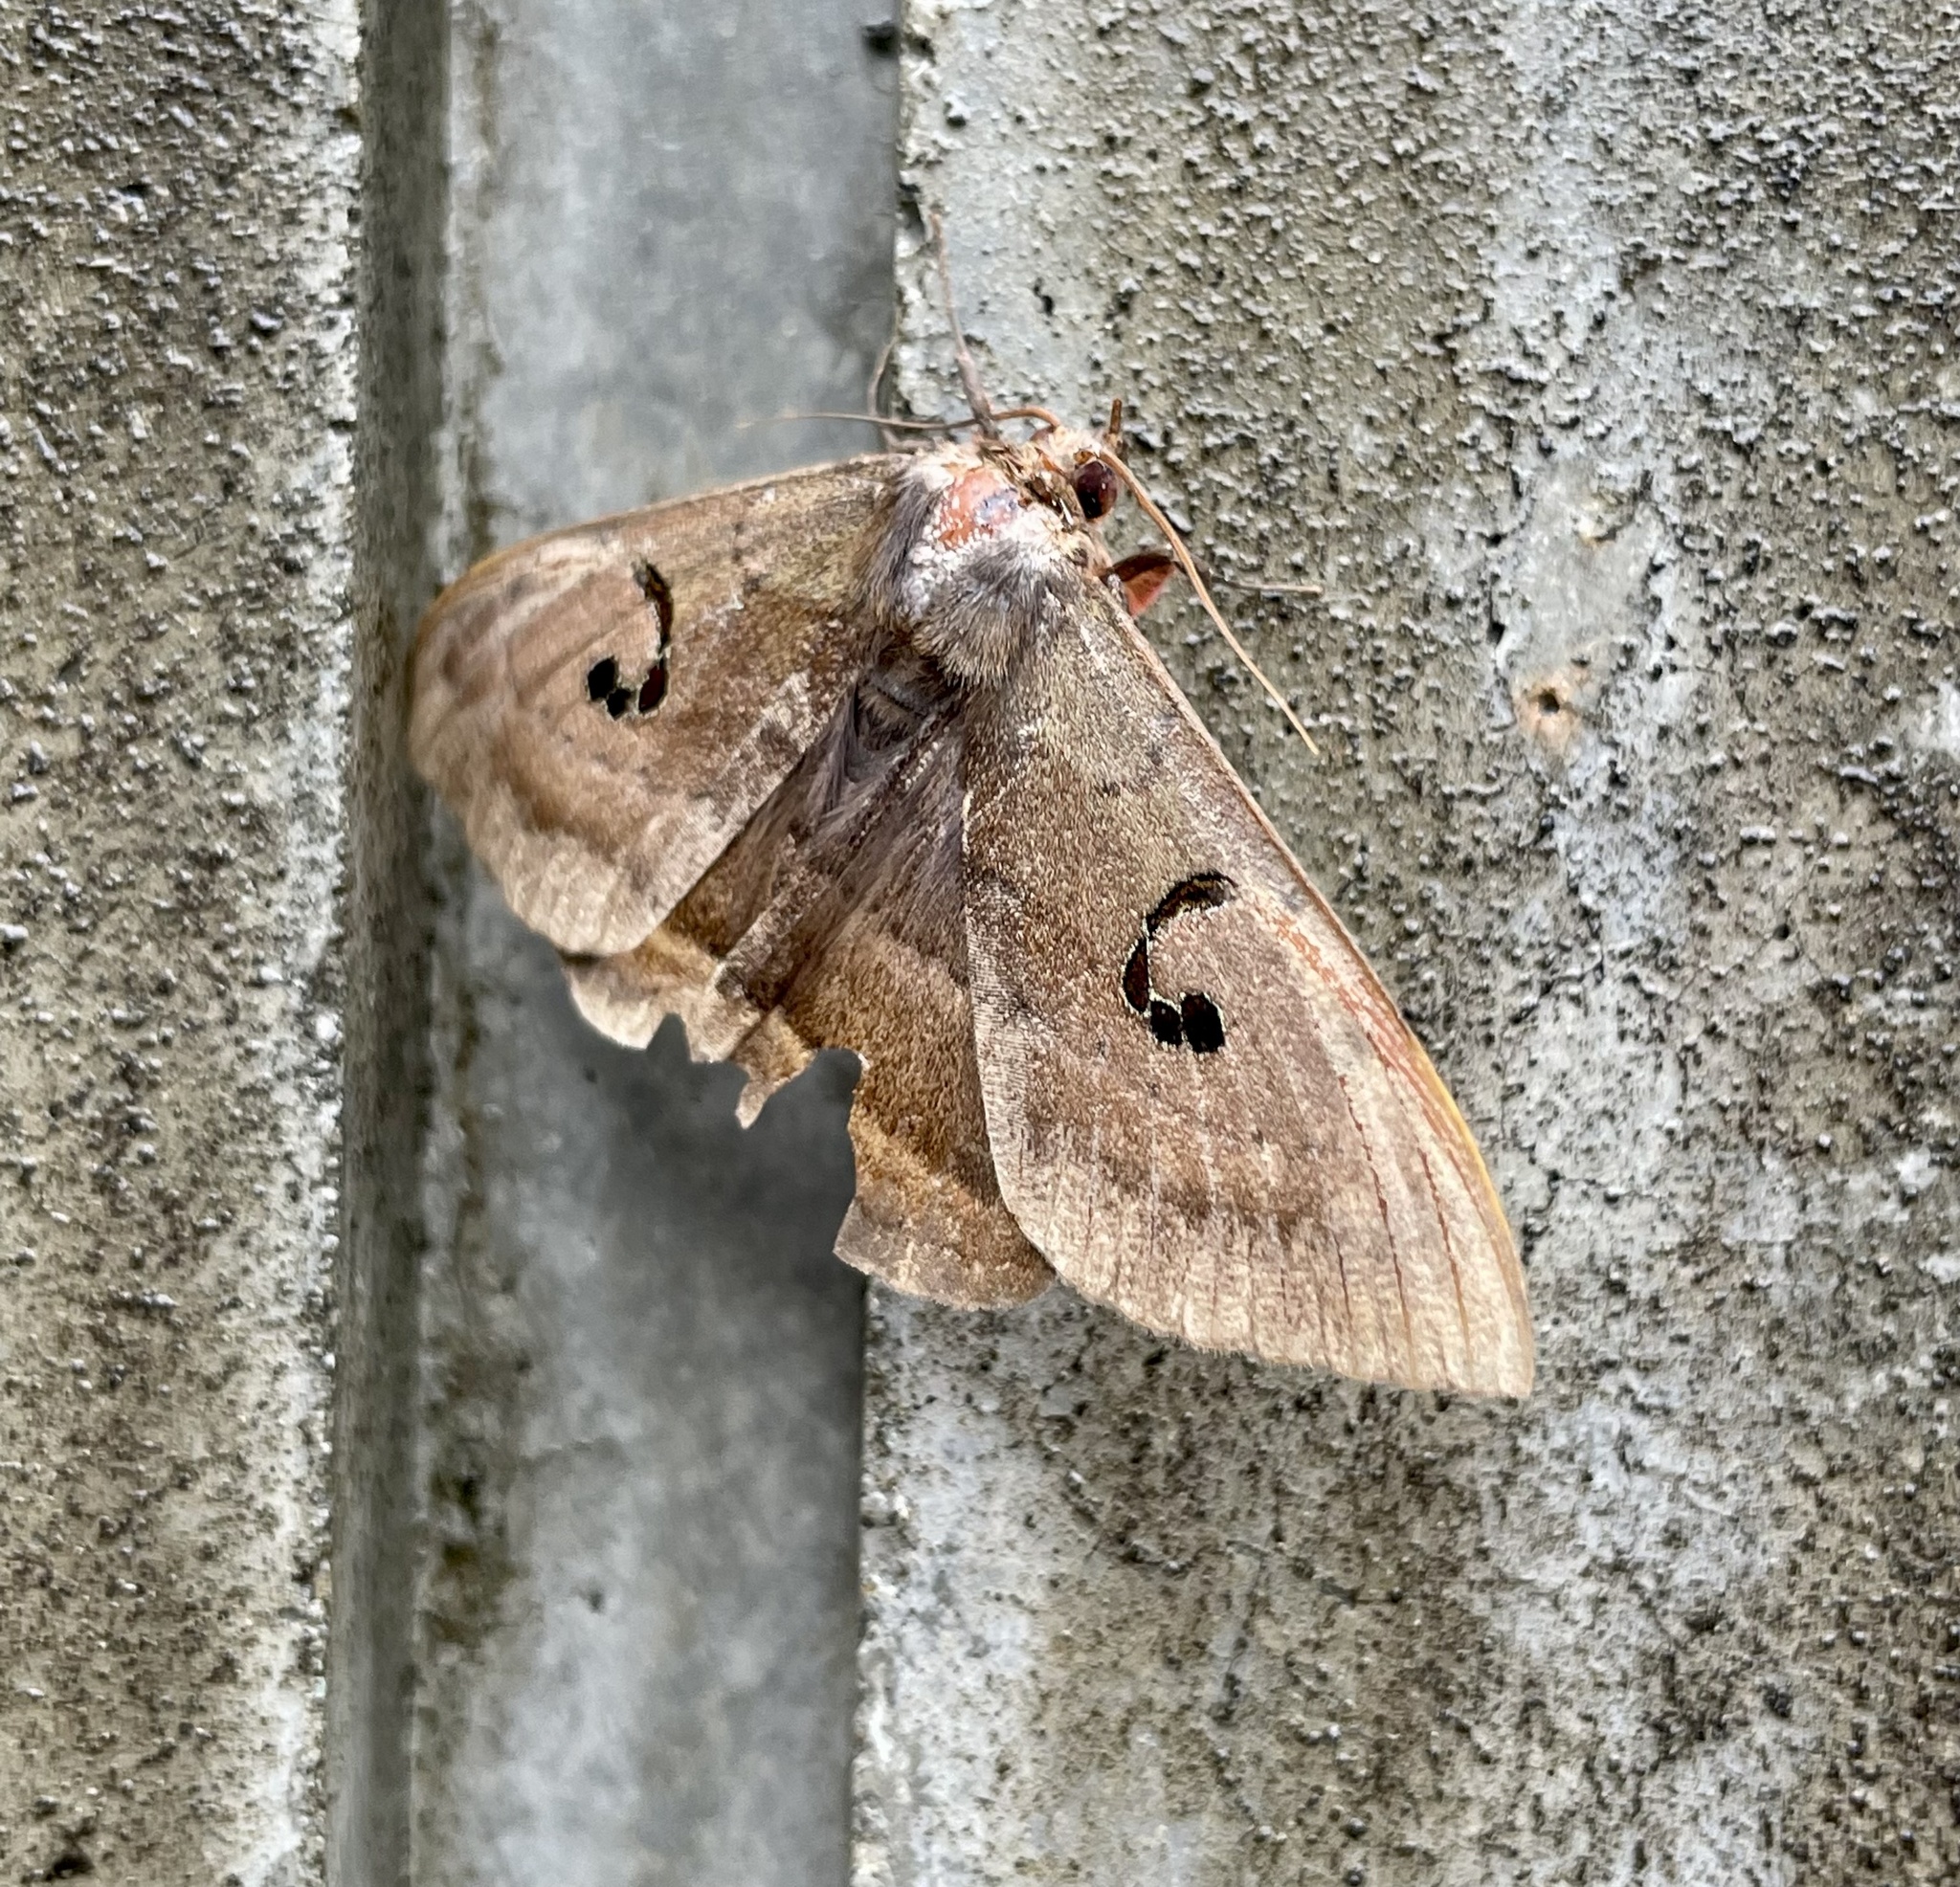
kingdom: Animalia
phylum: Arthropoda
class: Insecta
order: Lepidoptera
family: Erebidae
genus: Spirama
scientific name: Spirama retorta
